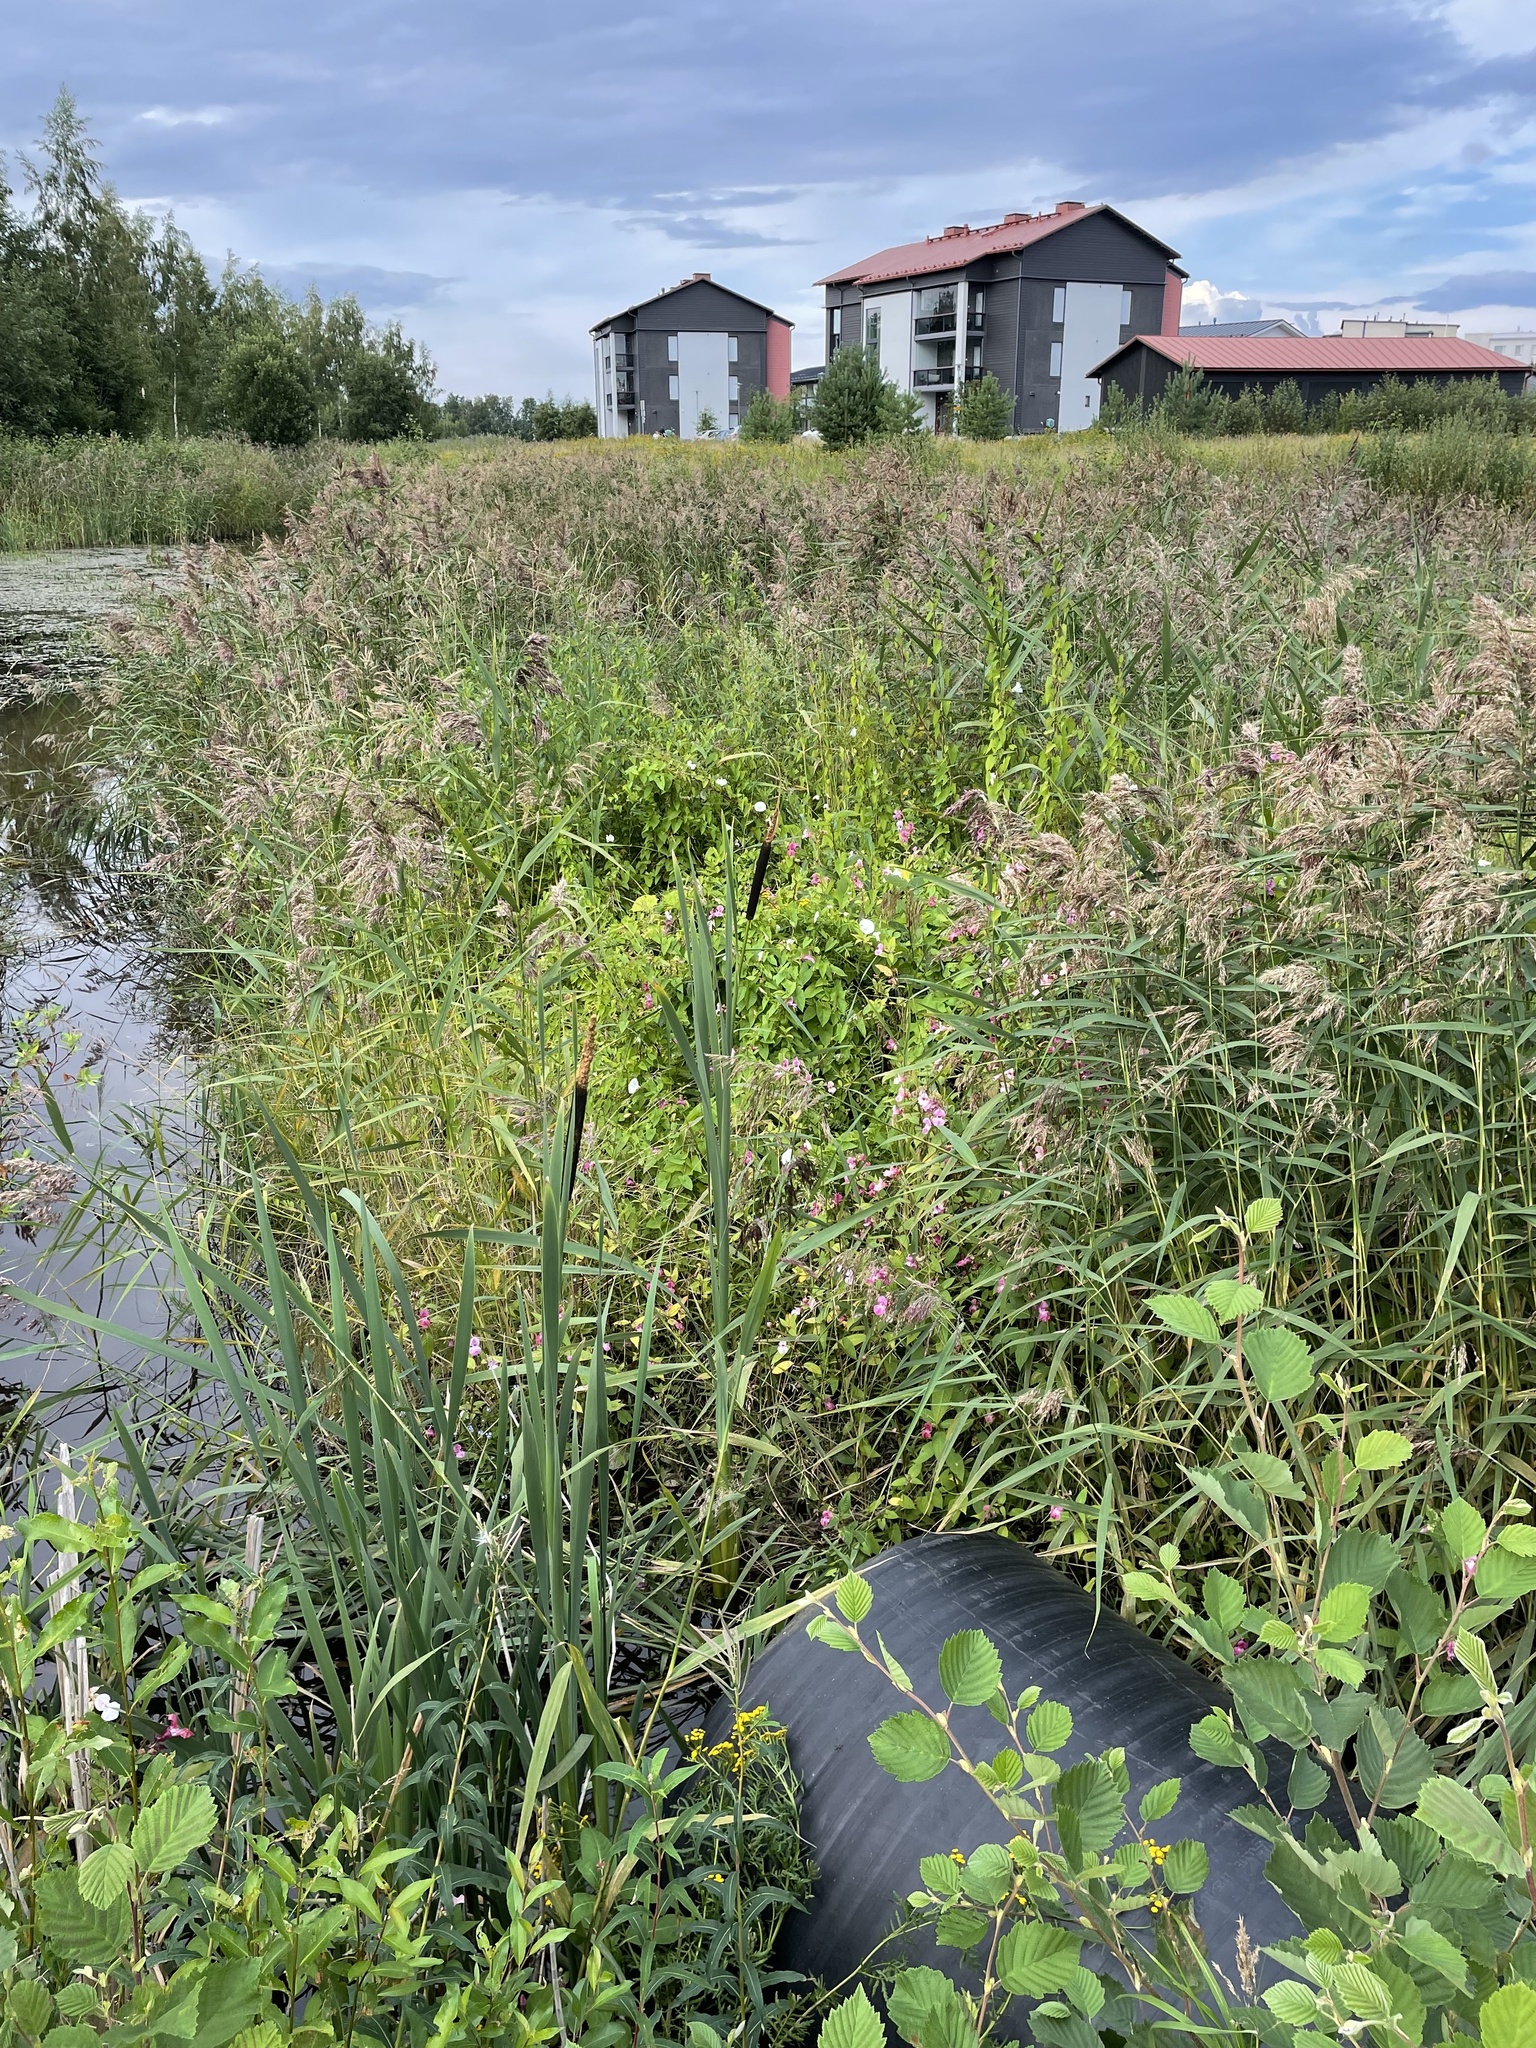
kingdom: Plantae
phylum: Tracheophyta
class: Magnoliopsida
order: Ericales
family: Balsaminaceae
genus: Impatiens
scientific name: Impatiens glandulifera
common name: Himalayan balsam
